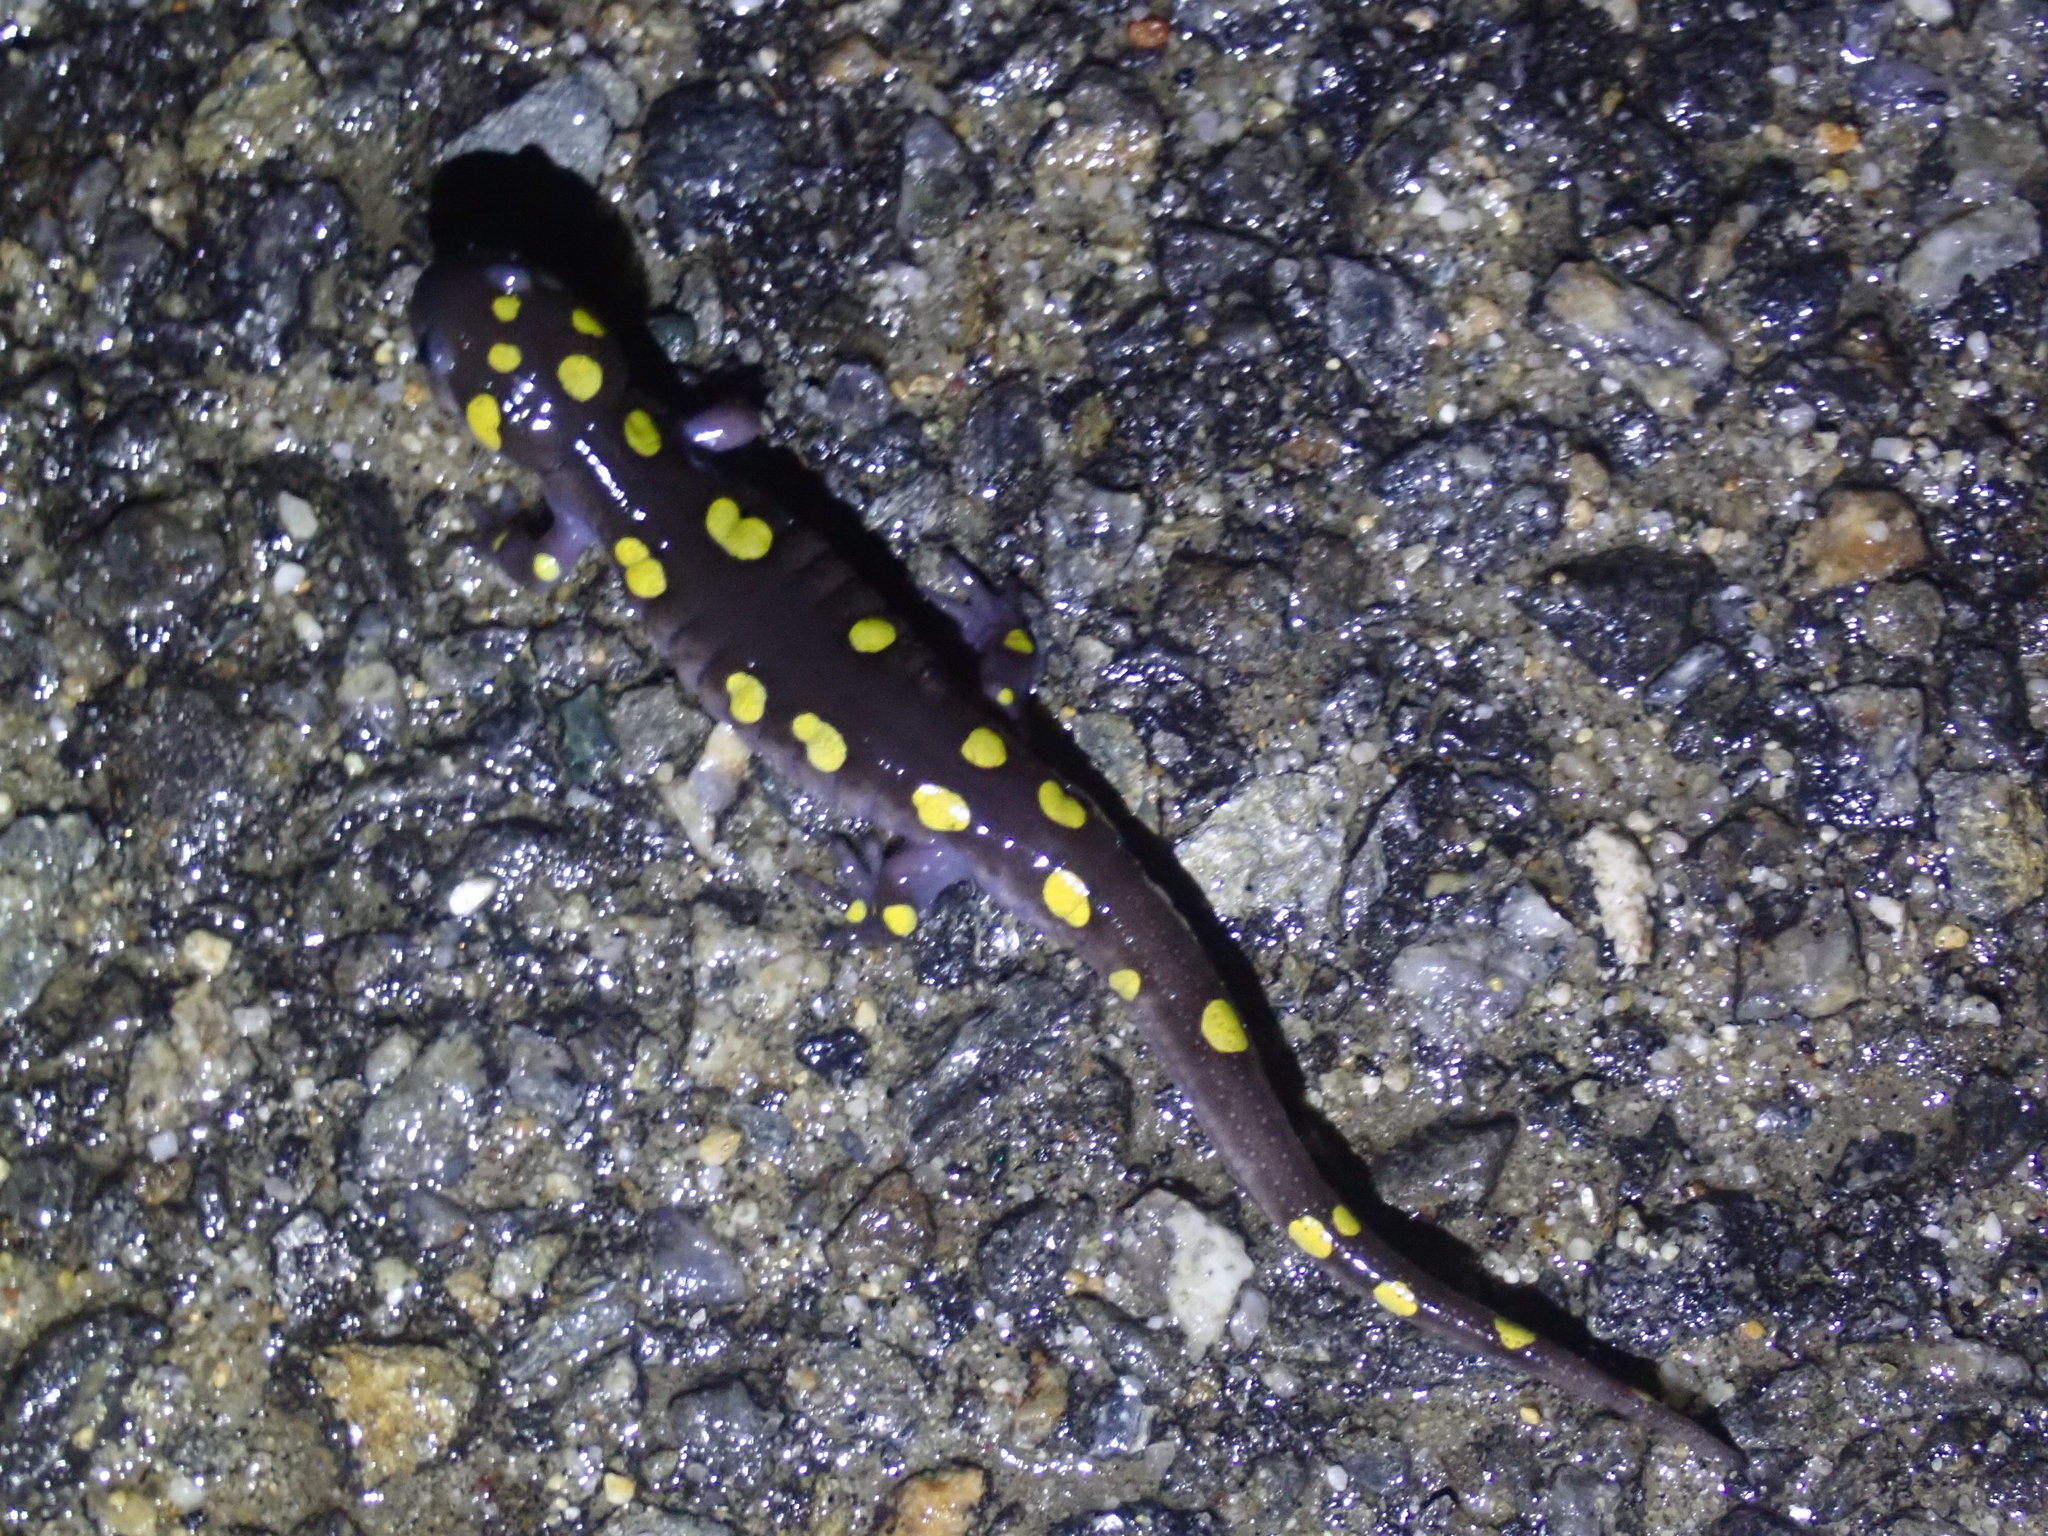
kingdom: Animalia
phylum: Chordata
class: Amphibia
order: Caudata
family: Ambystomatidae
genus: Ambystoma
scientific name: Ambystoma maculatum
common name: Spotted salamander
